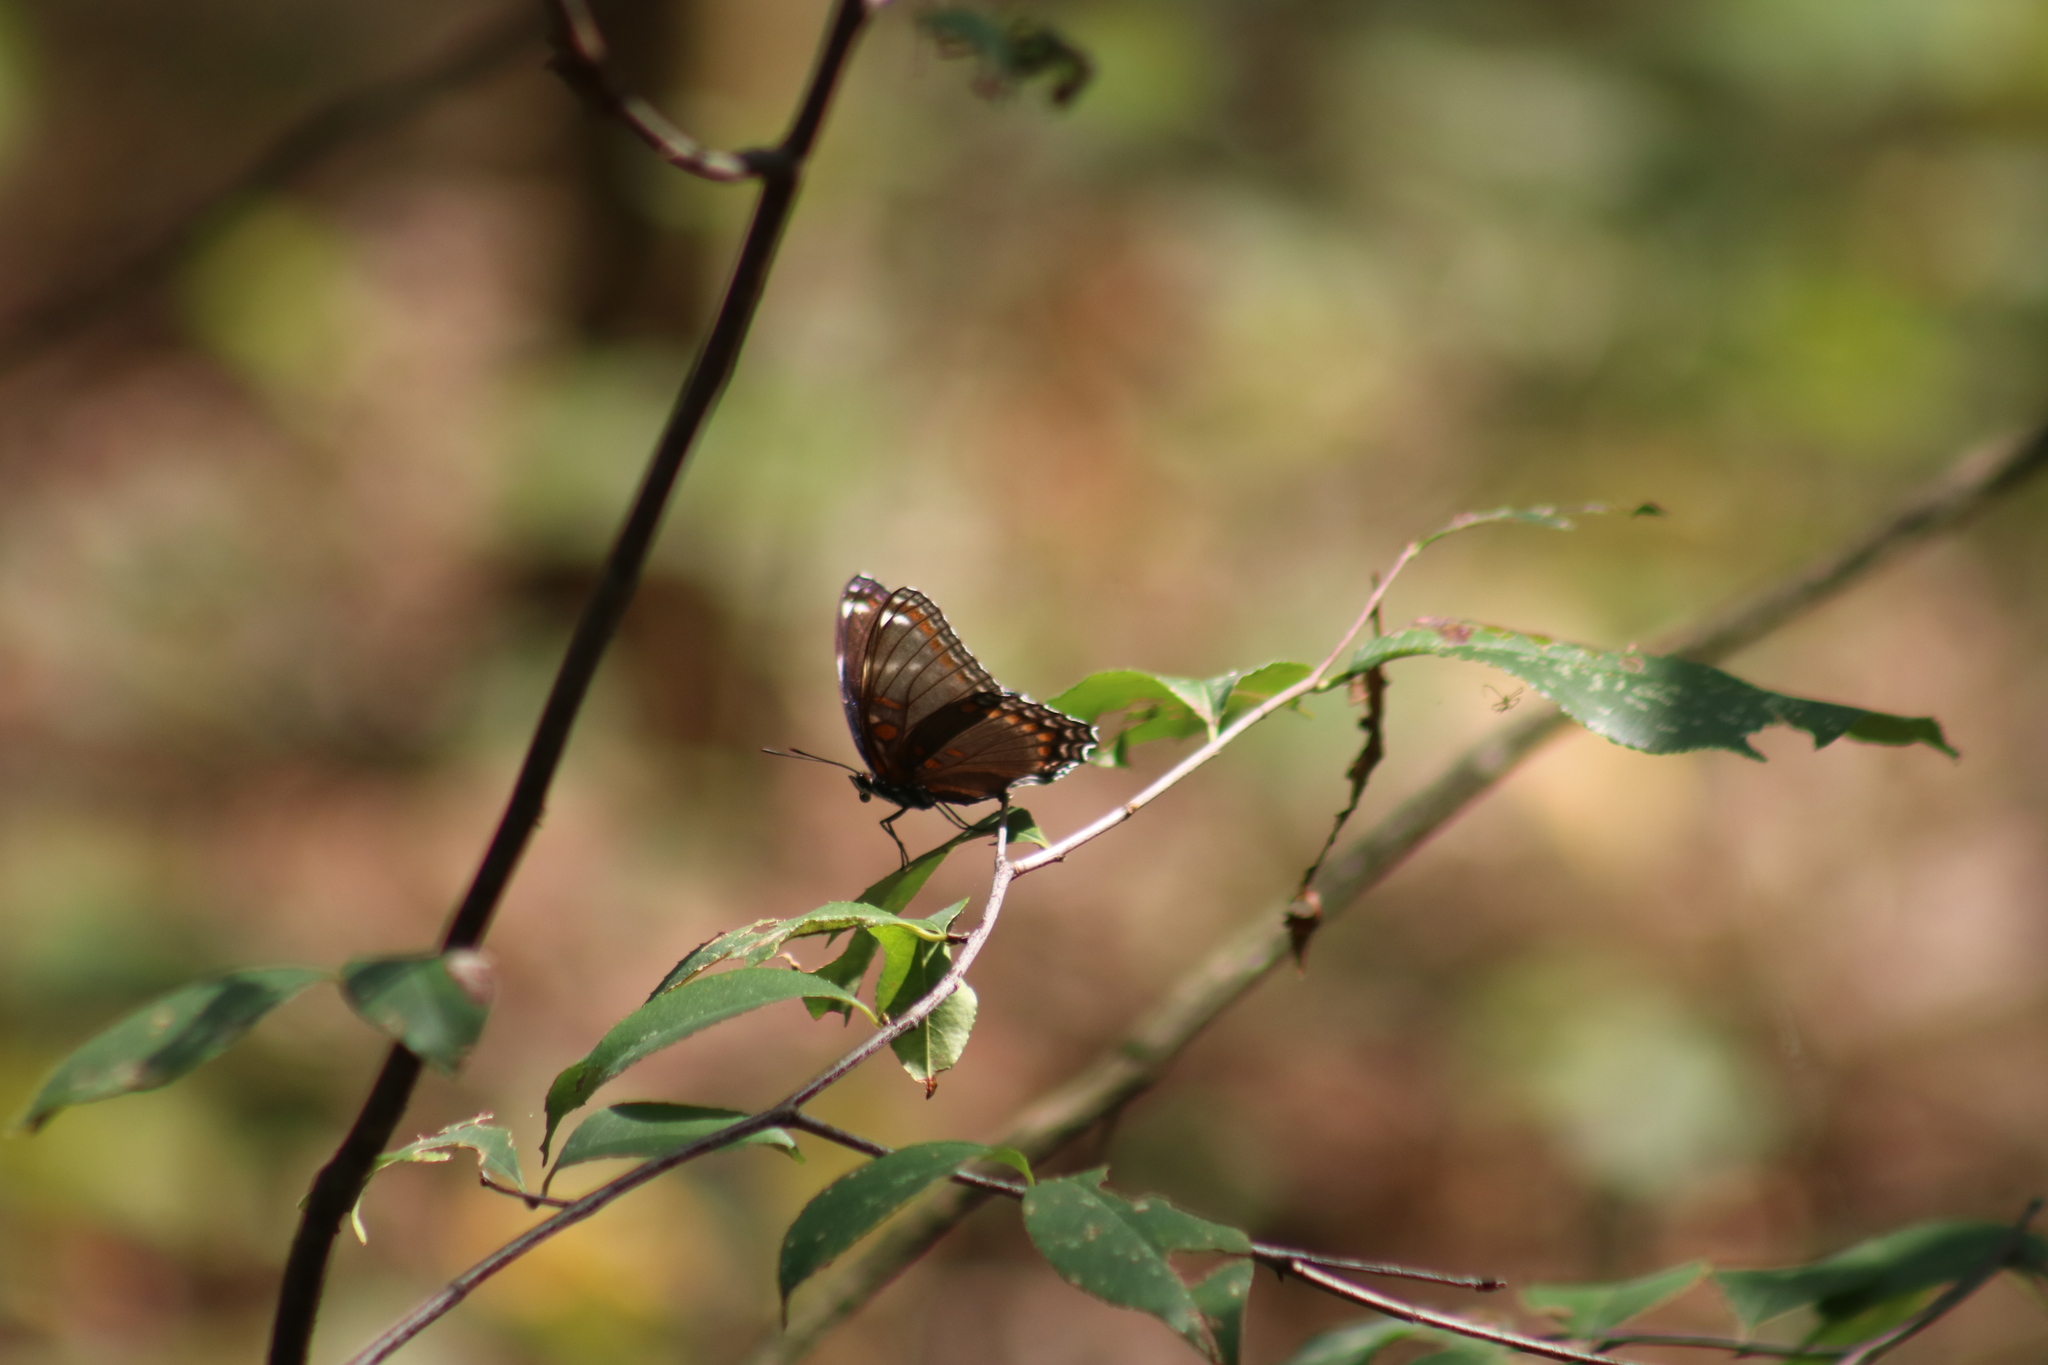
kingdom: Animalia
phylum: Arthropoda
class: Insecta
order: Lepidoptera
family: Nymphalidae
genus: Limenitis
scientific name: Limenitis
